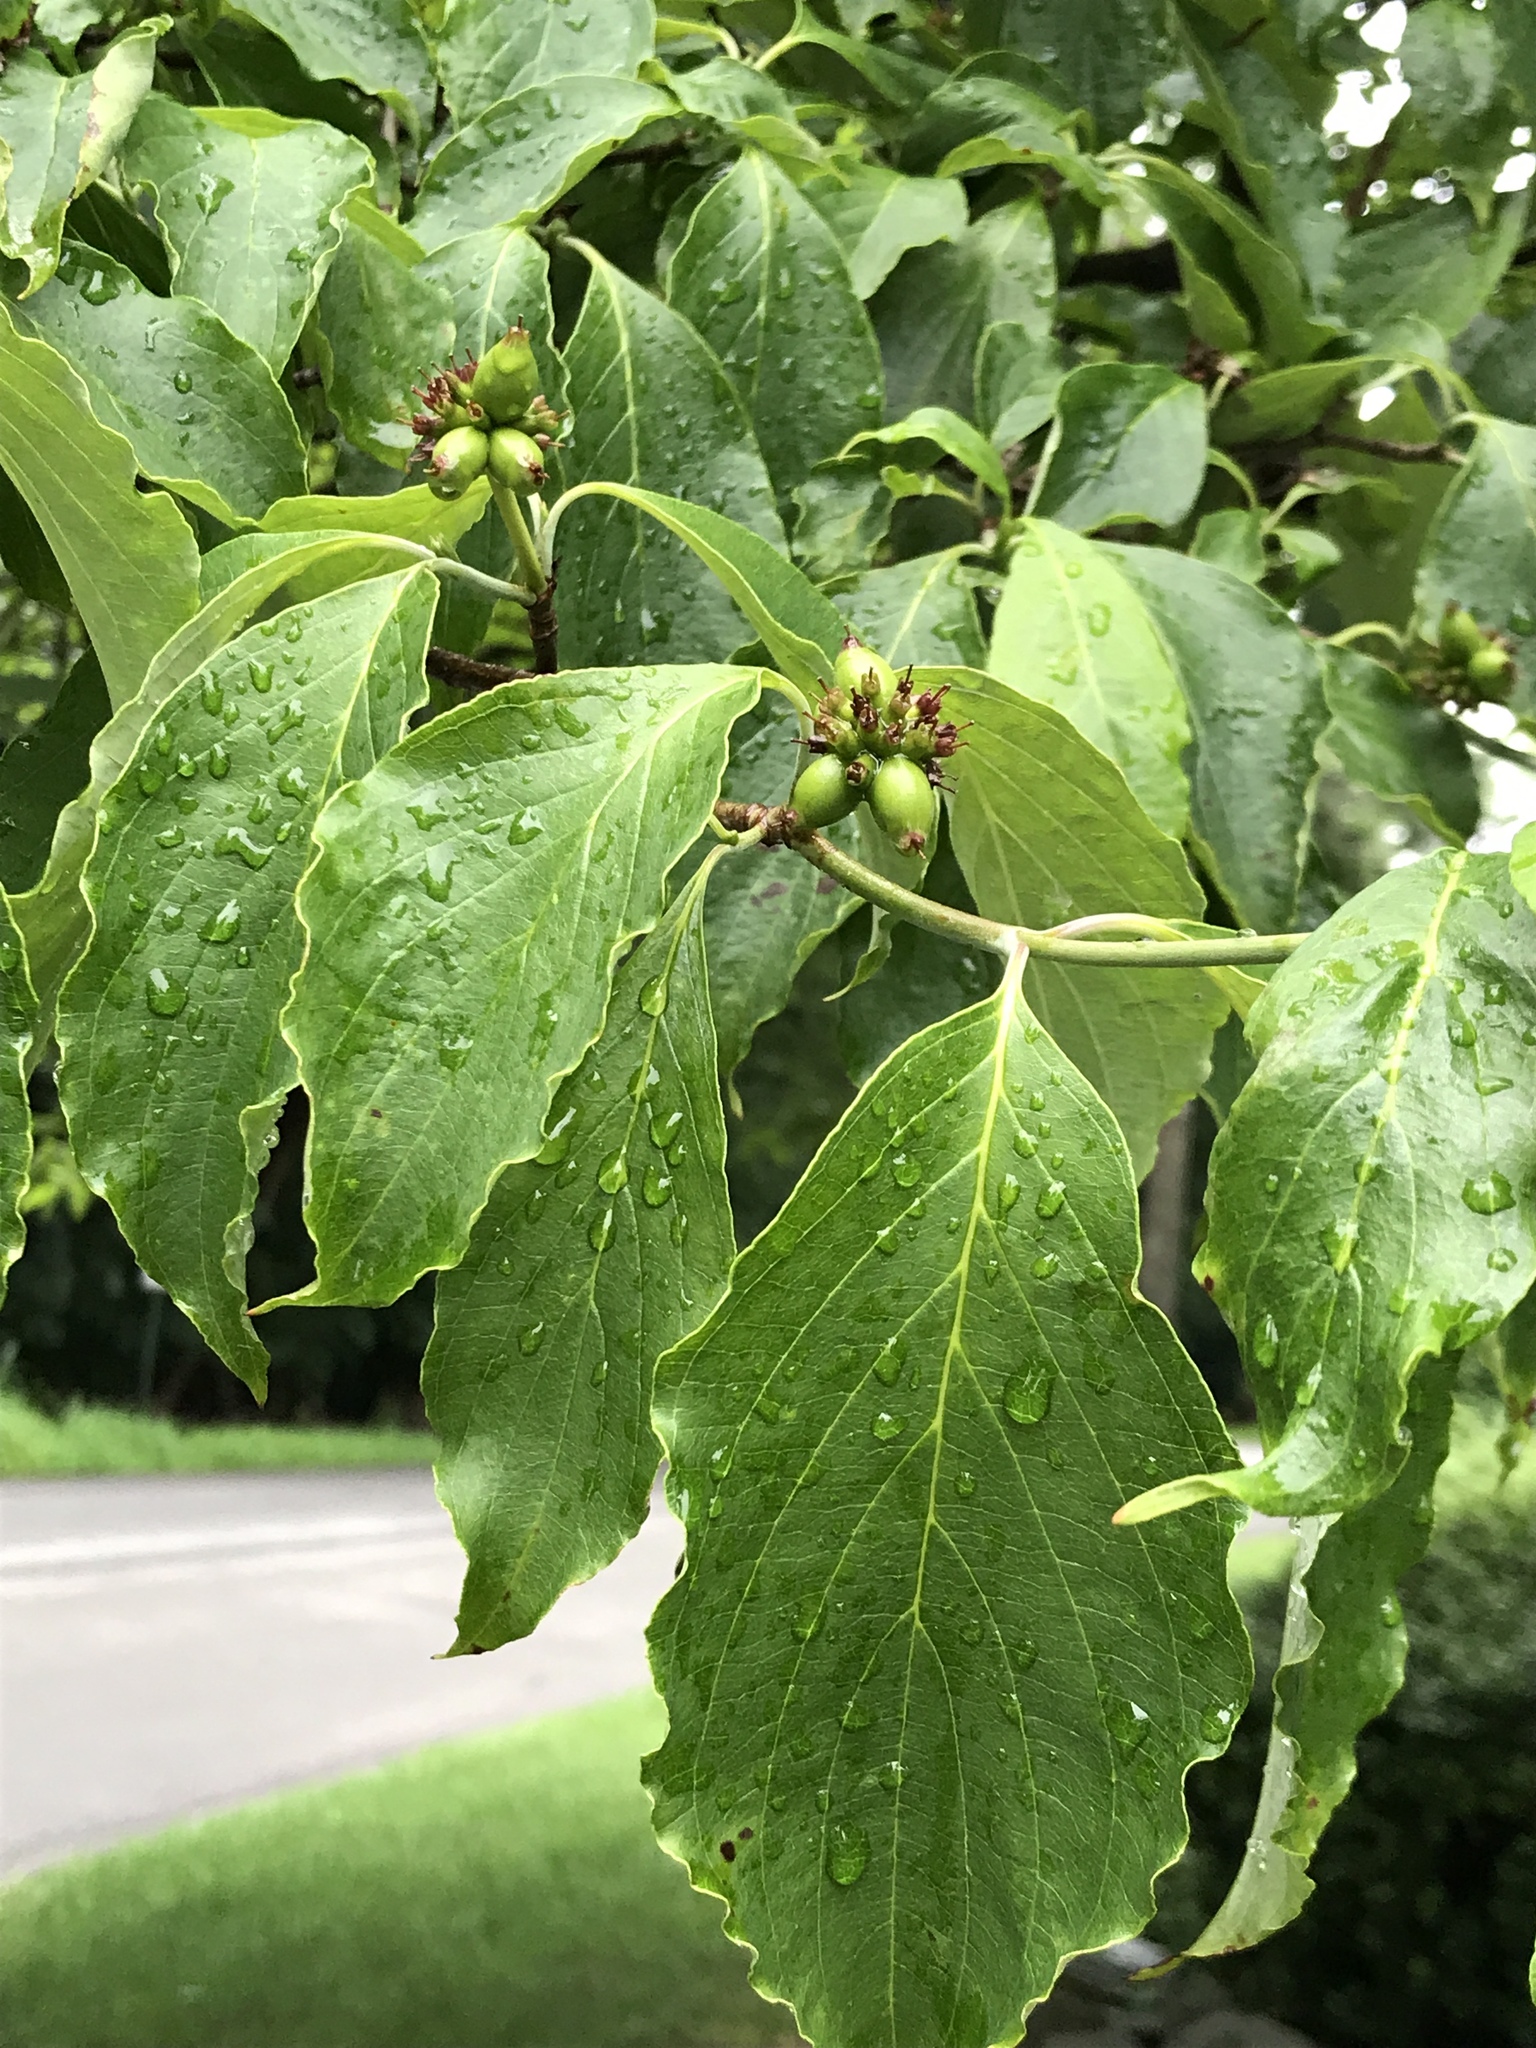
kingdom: Plantae
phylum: Tracheophyta
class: Magnoliopsida
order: Cornales
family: Cornaceae
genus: Cornus
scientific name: Cornus florida
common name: Flowering dogwood
